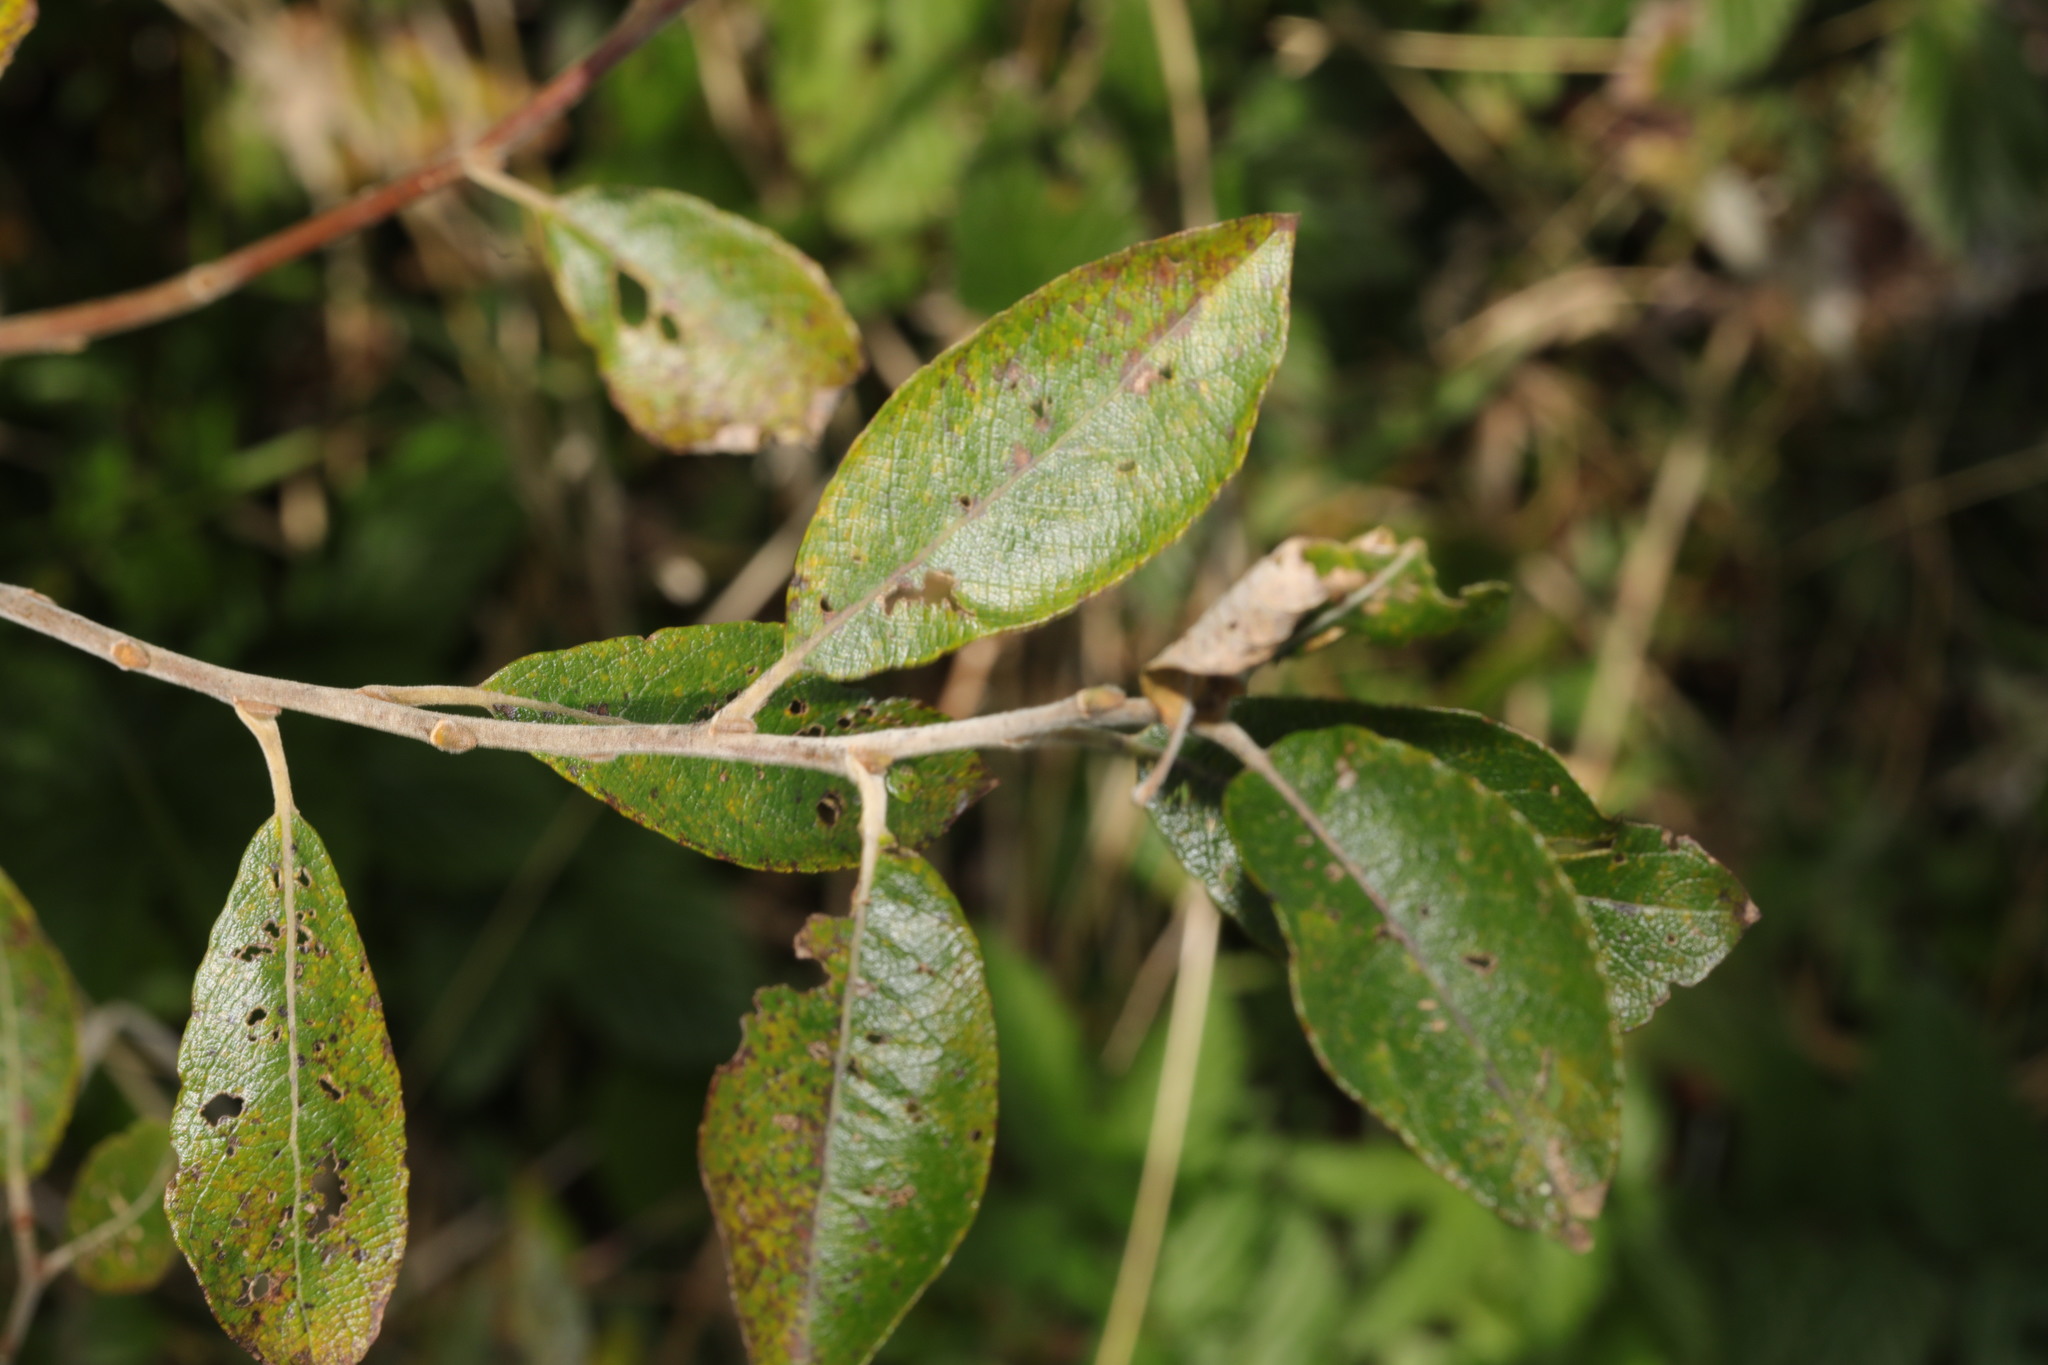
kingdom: Plantae
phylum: Tracheophyta
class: Magnoliopsida
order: Malpighiales
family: Salicaceae
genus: Salix
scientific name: Salix cinerea
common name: Common sallow
